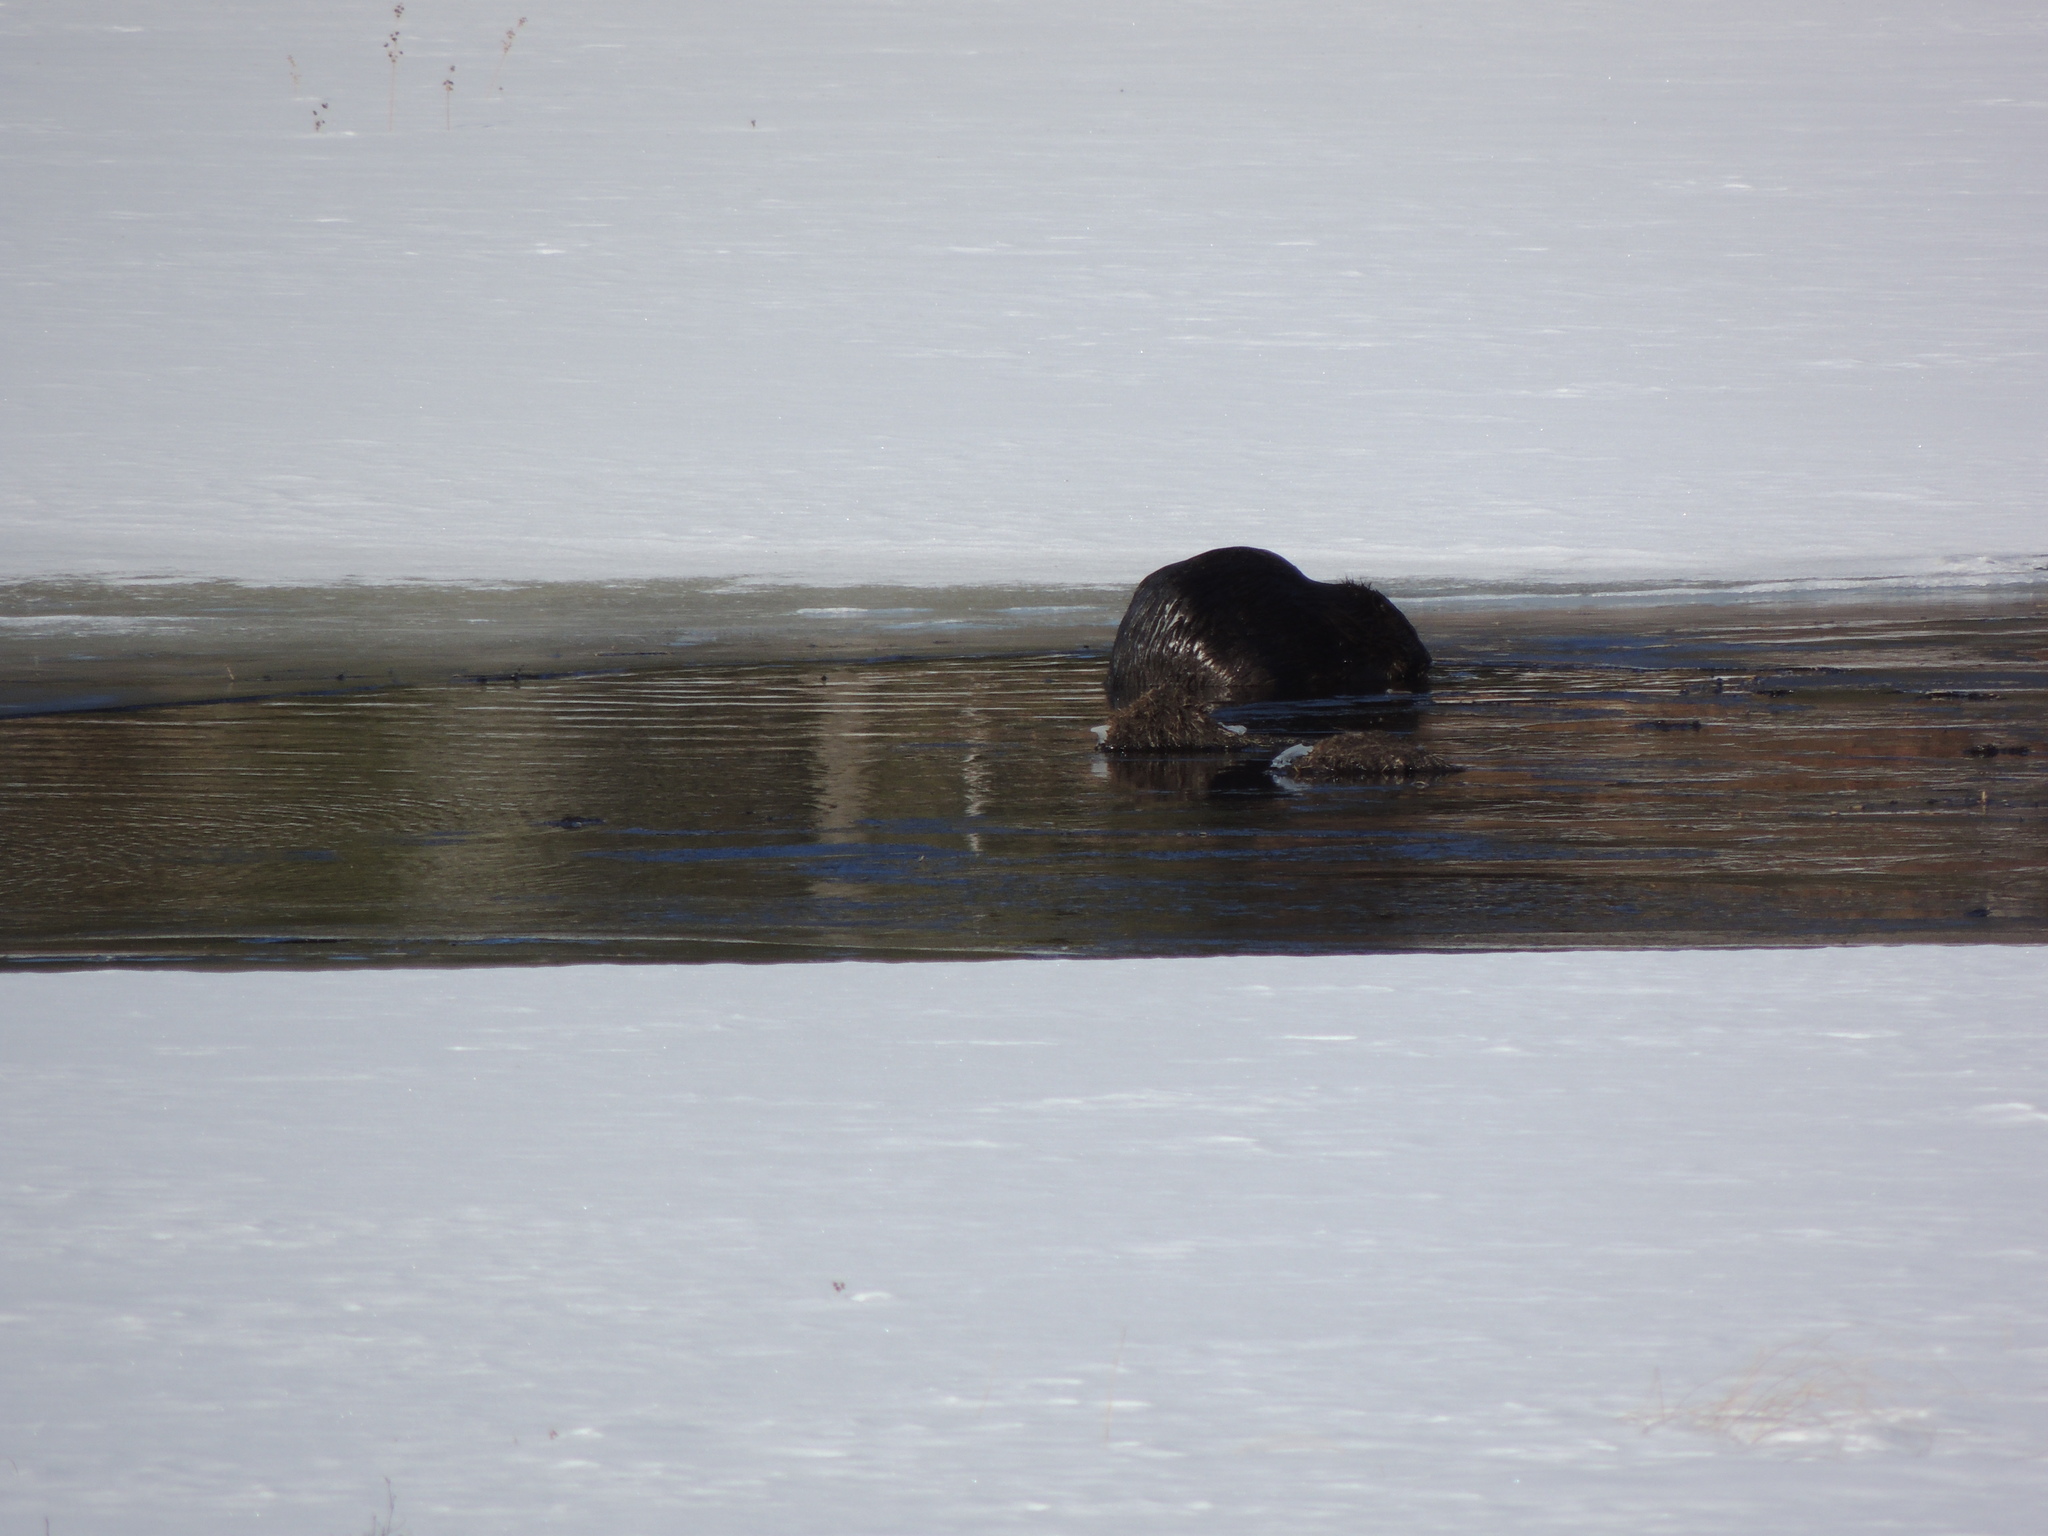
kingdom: Animalia
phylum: Chordata
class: Mammalia
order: Rodentia
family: Castoridae
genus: Castor
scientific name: Castor canadensis
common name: American beaver
